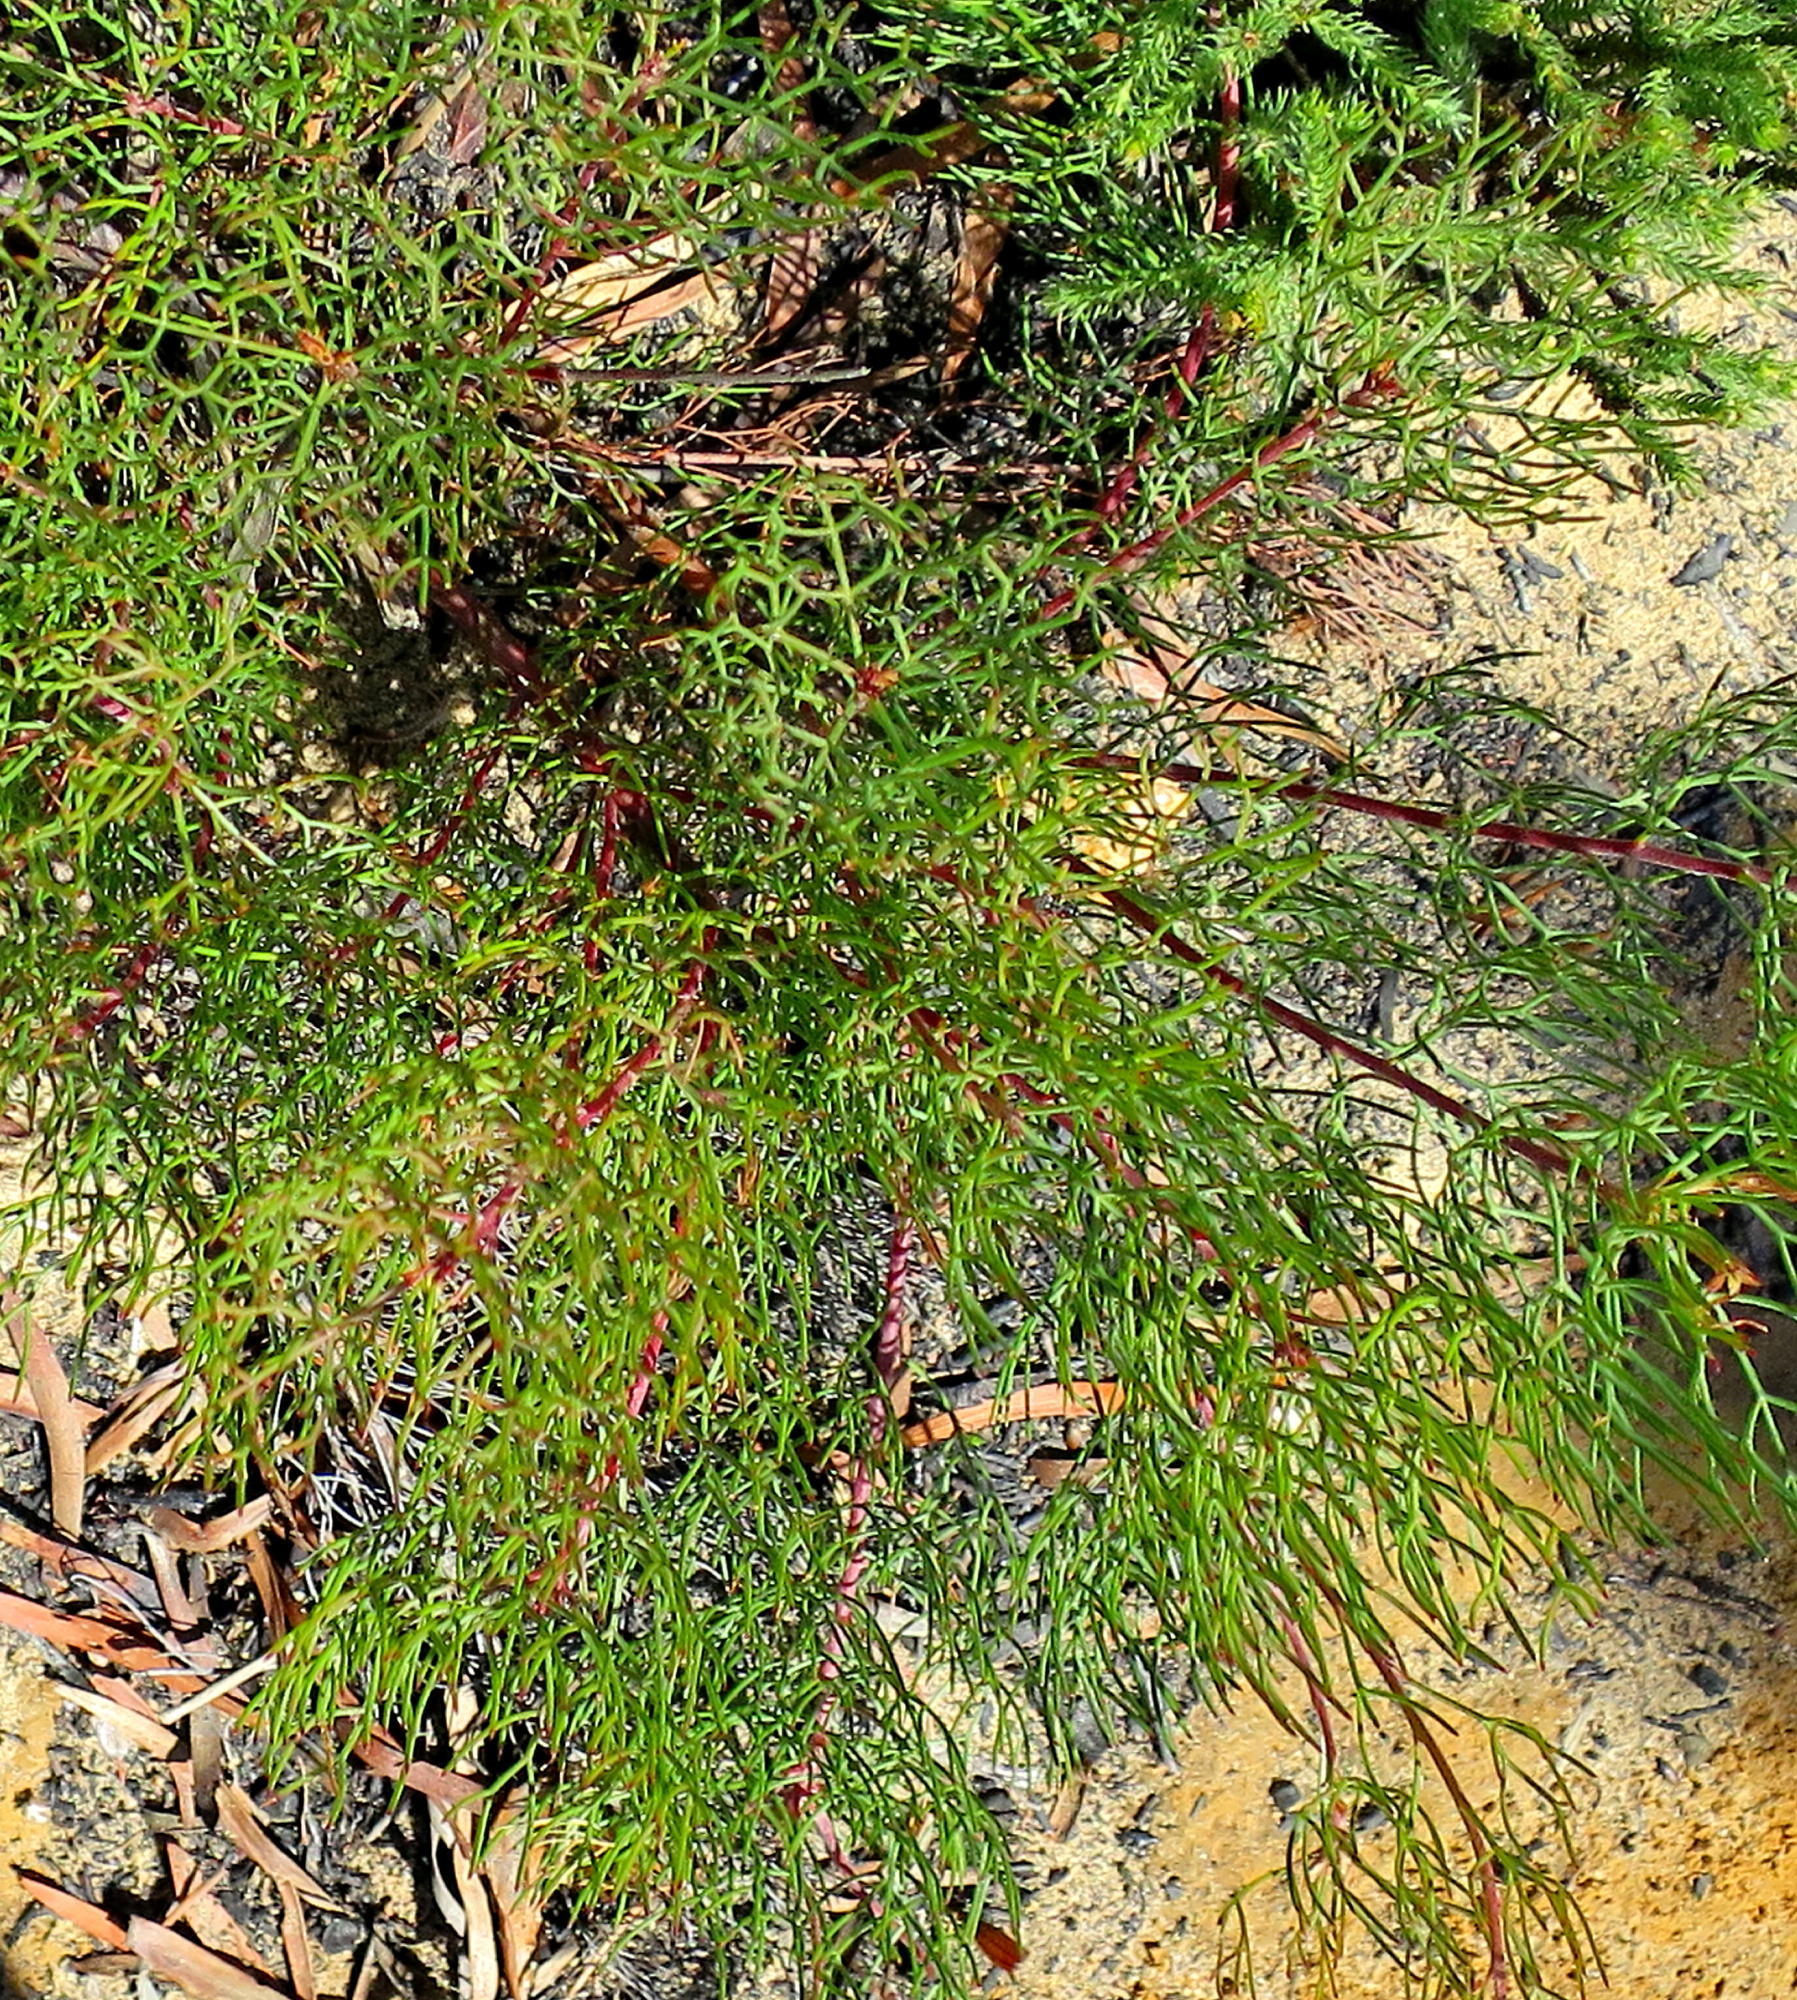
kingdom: Plantae
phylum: Tracheophyta
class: Magnoliopsida
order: Proteales
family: Proteaceae
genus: Serruria
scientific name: Serruria fasciflora
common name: Common pin spiderhead
